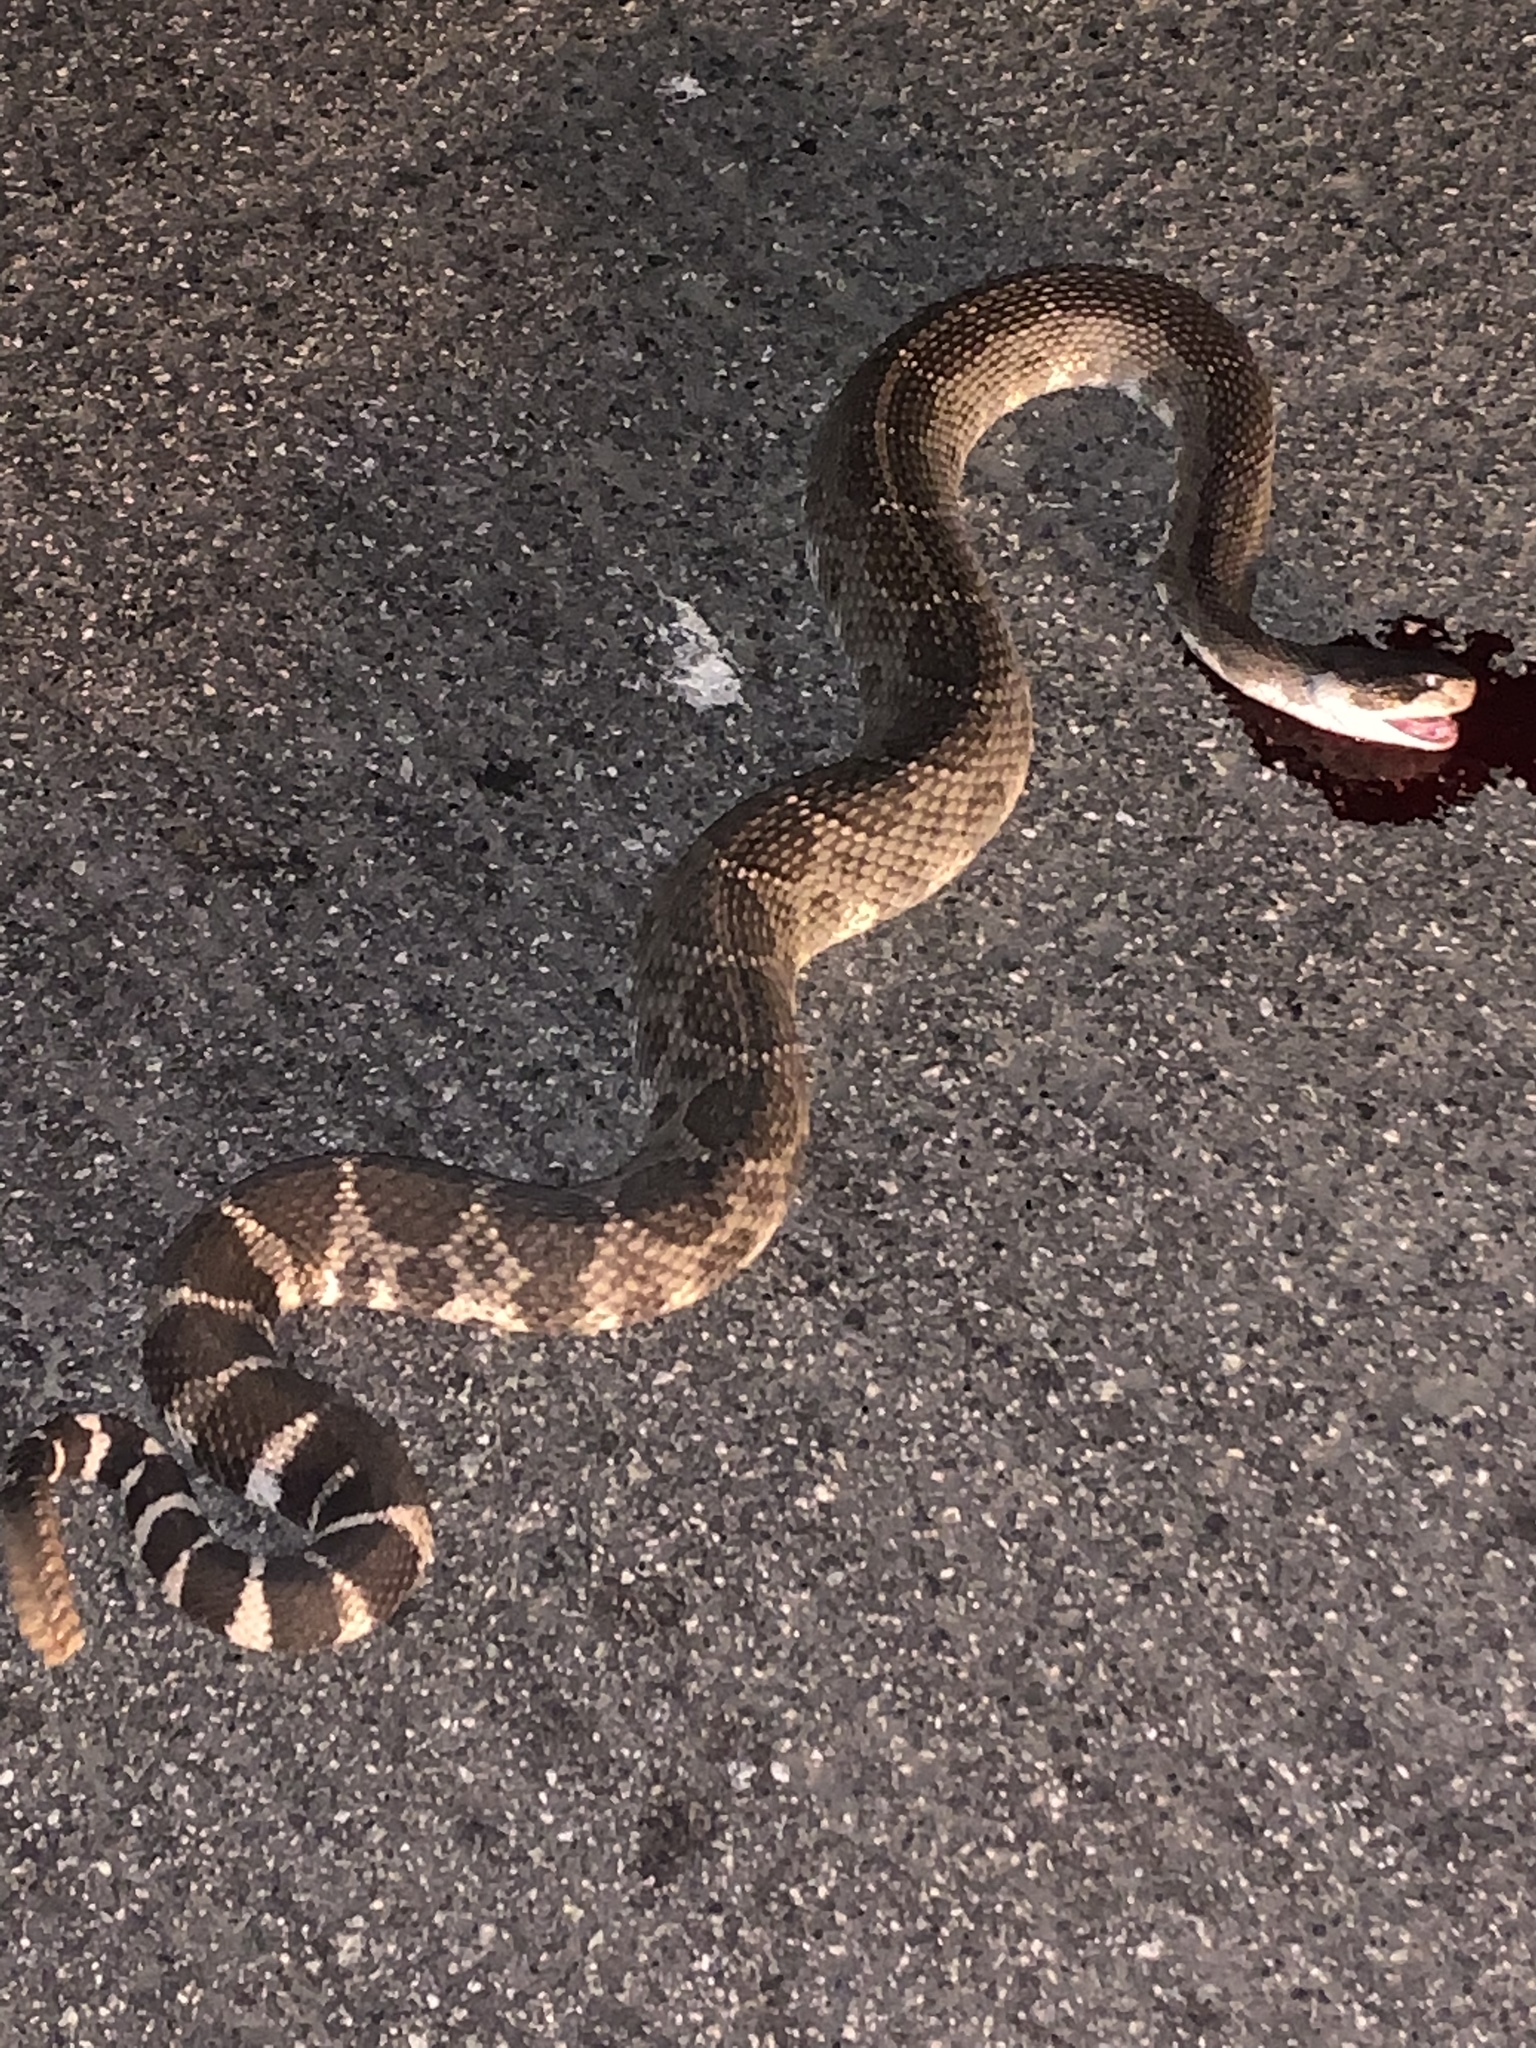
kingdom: Animalia
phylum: Chordata
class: Squamata
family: Viperidae
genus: Crotalus
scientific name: Crotalus oreganus
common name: Abyssus
